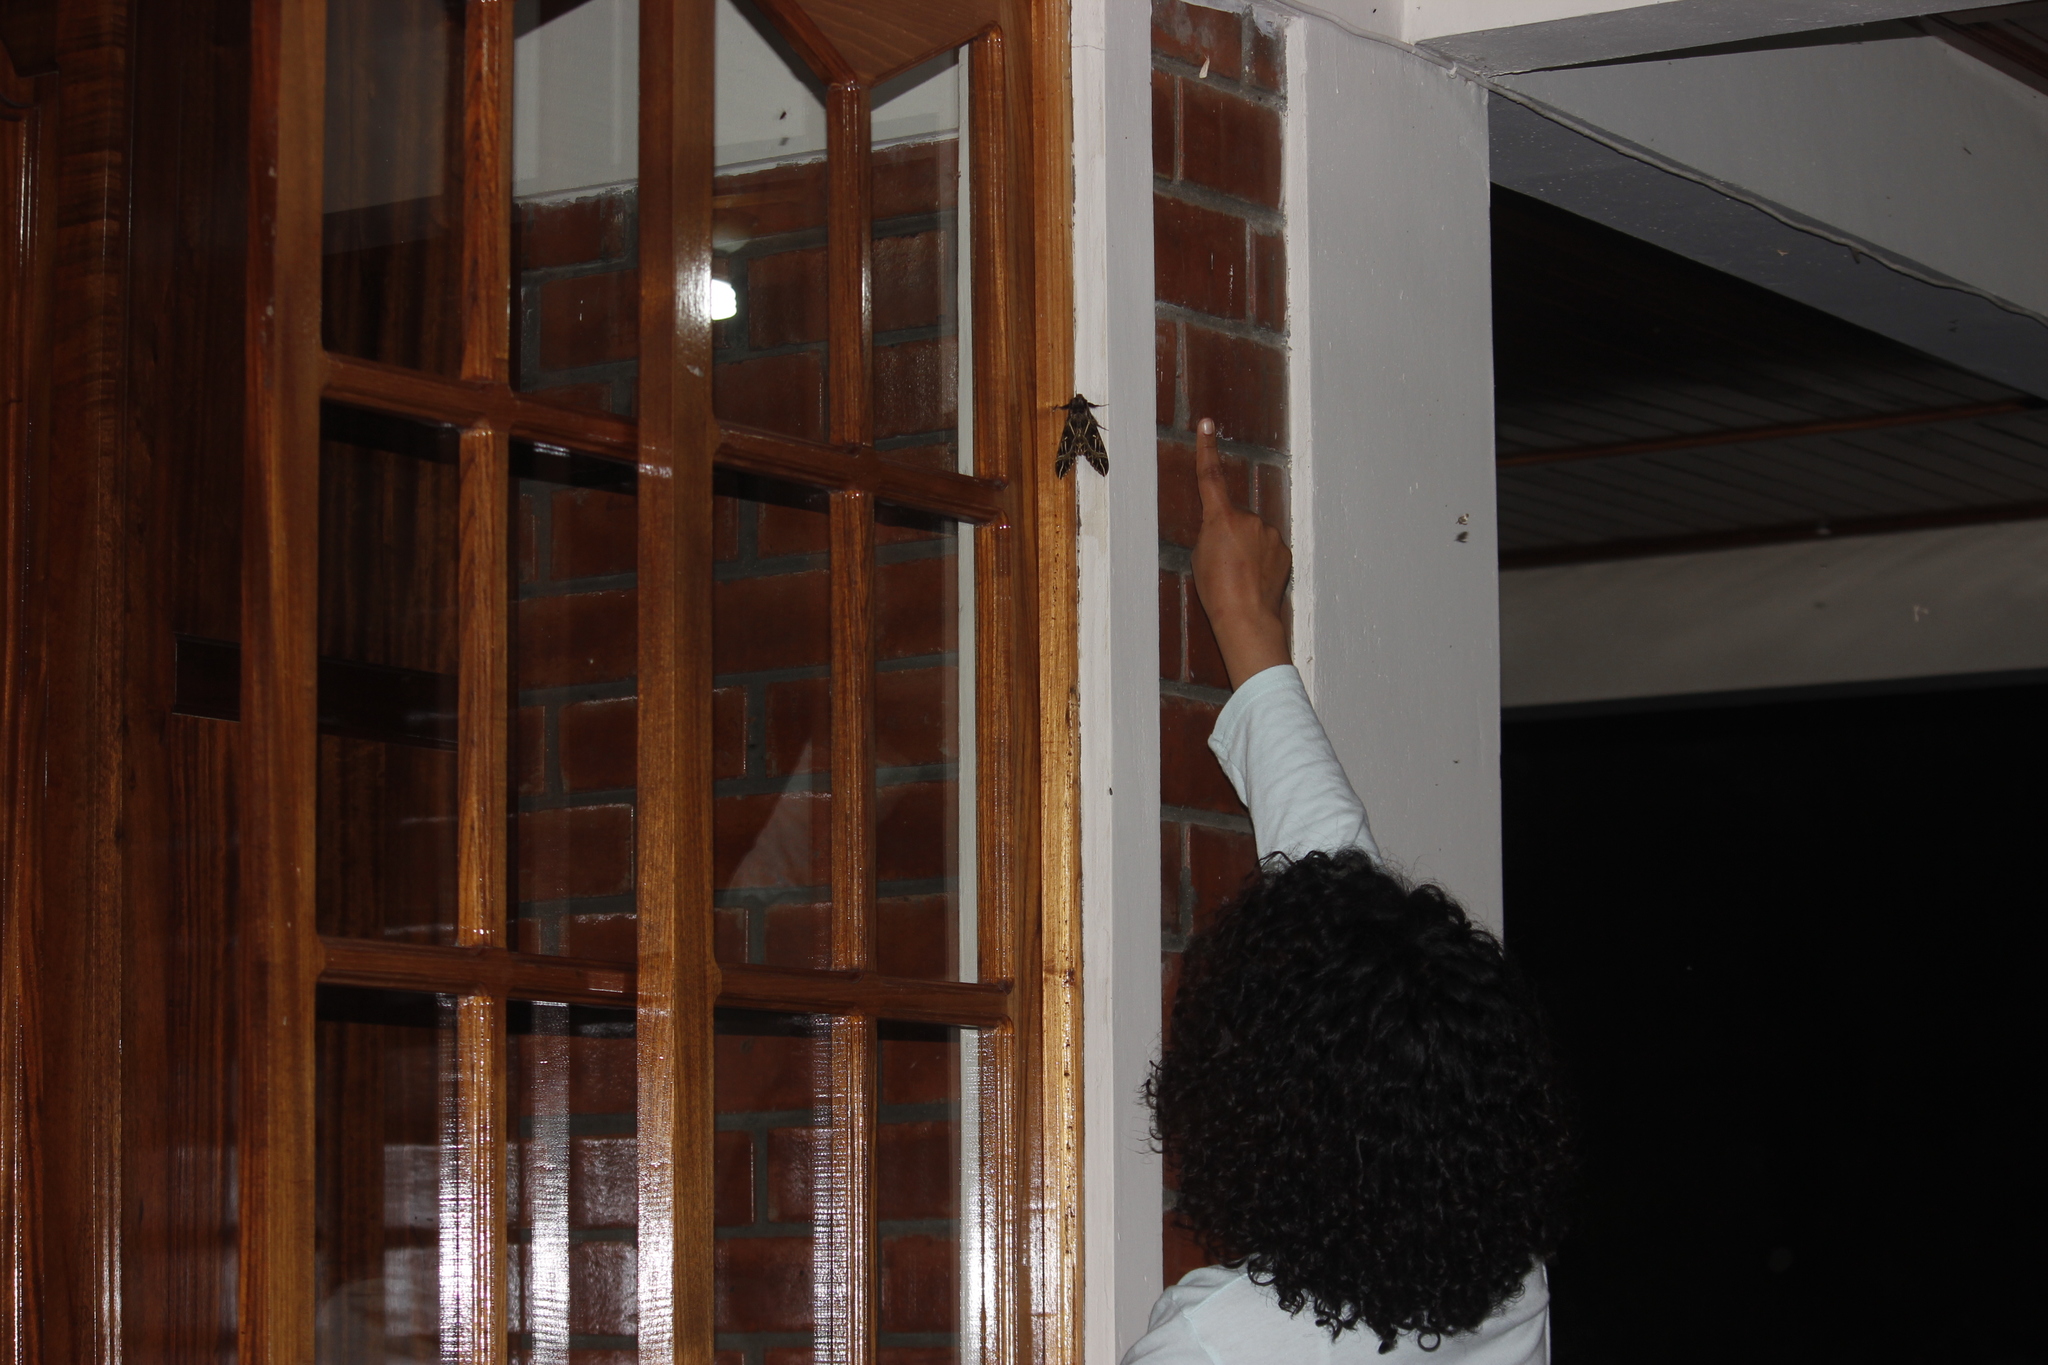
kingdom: Animalia
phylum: Arthropoda
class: Insecta
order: Lepidoptera
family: Sphingidae
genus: Euryglottis
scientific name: Euryglottis aper
